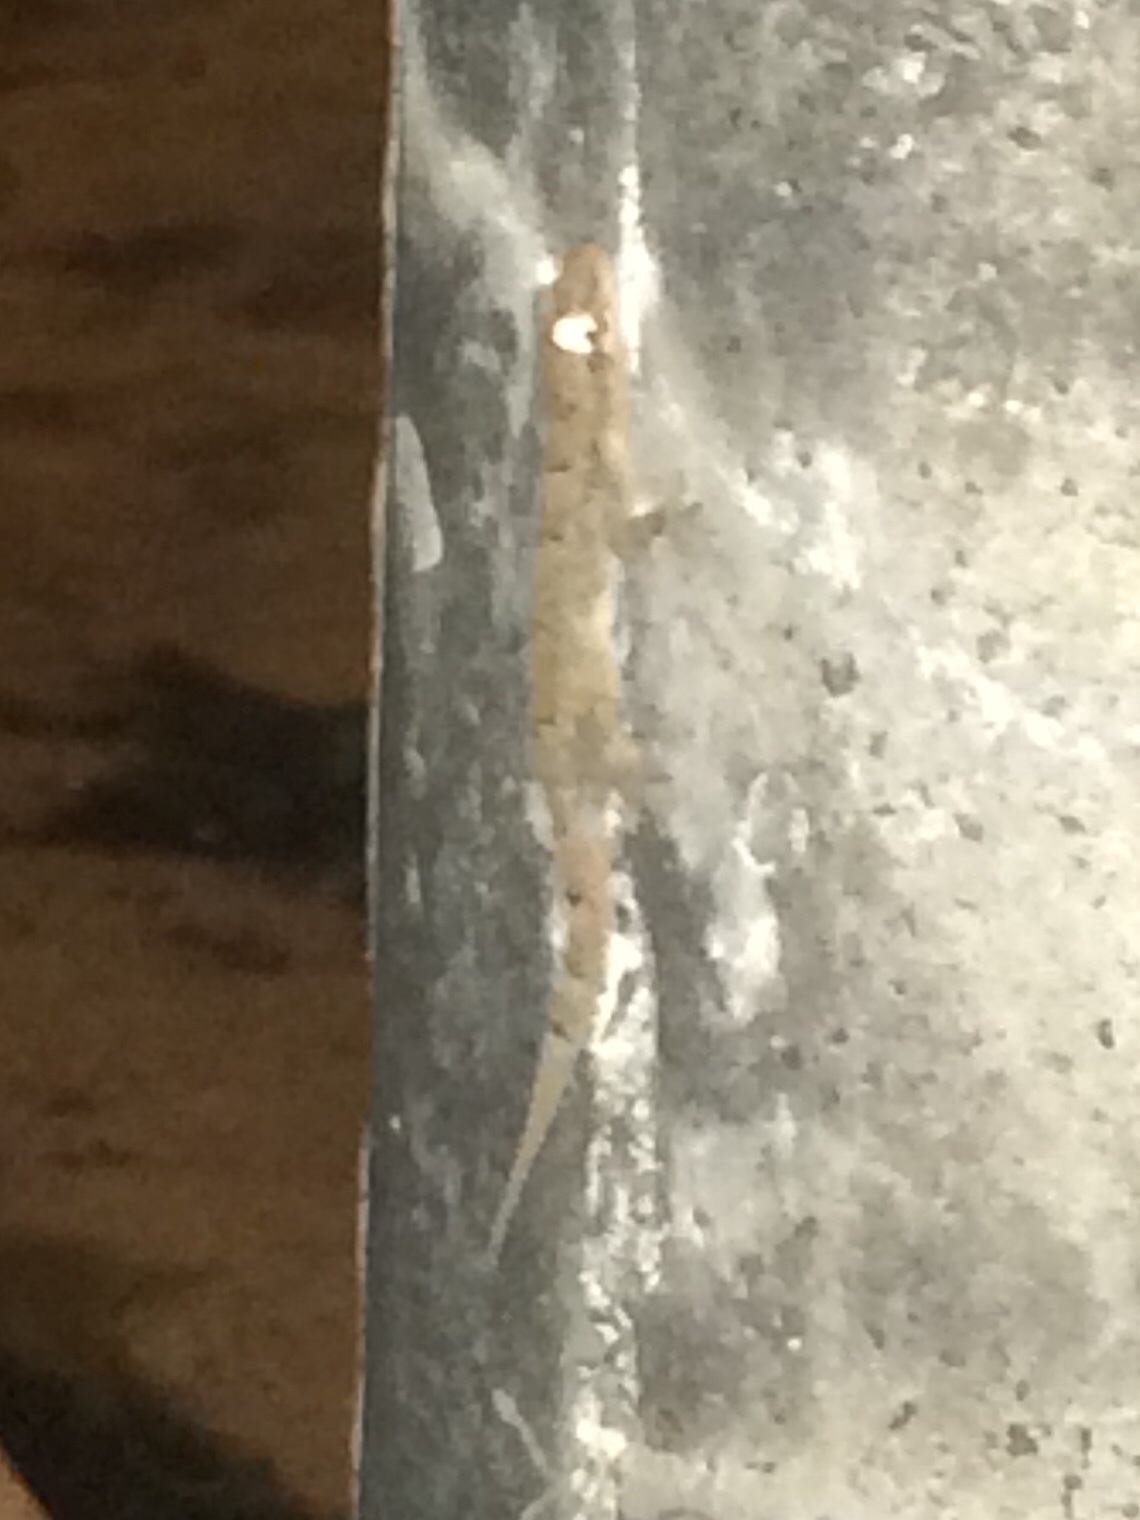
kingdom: Animalia
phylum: Chordata
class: Squamata
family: Gekkonidae
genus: Hemidactylus
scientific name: Hemidactylus mabouia
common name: House gecko
